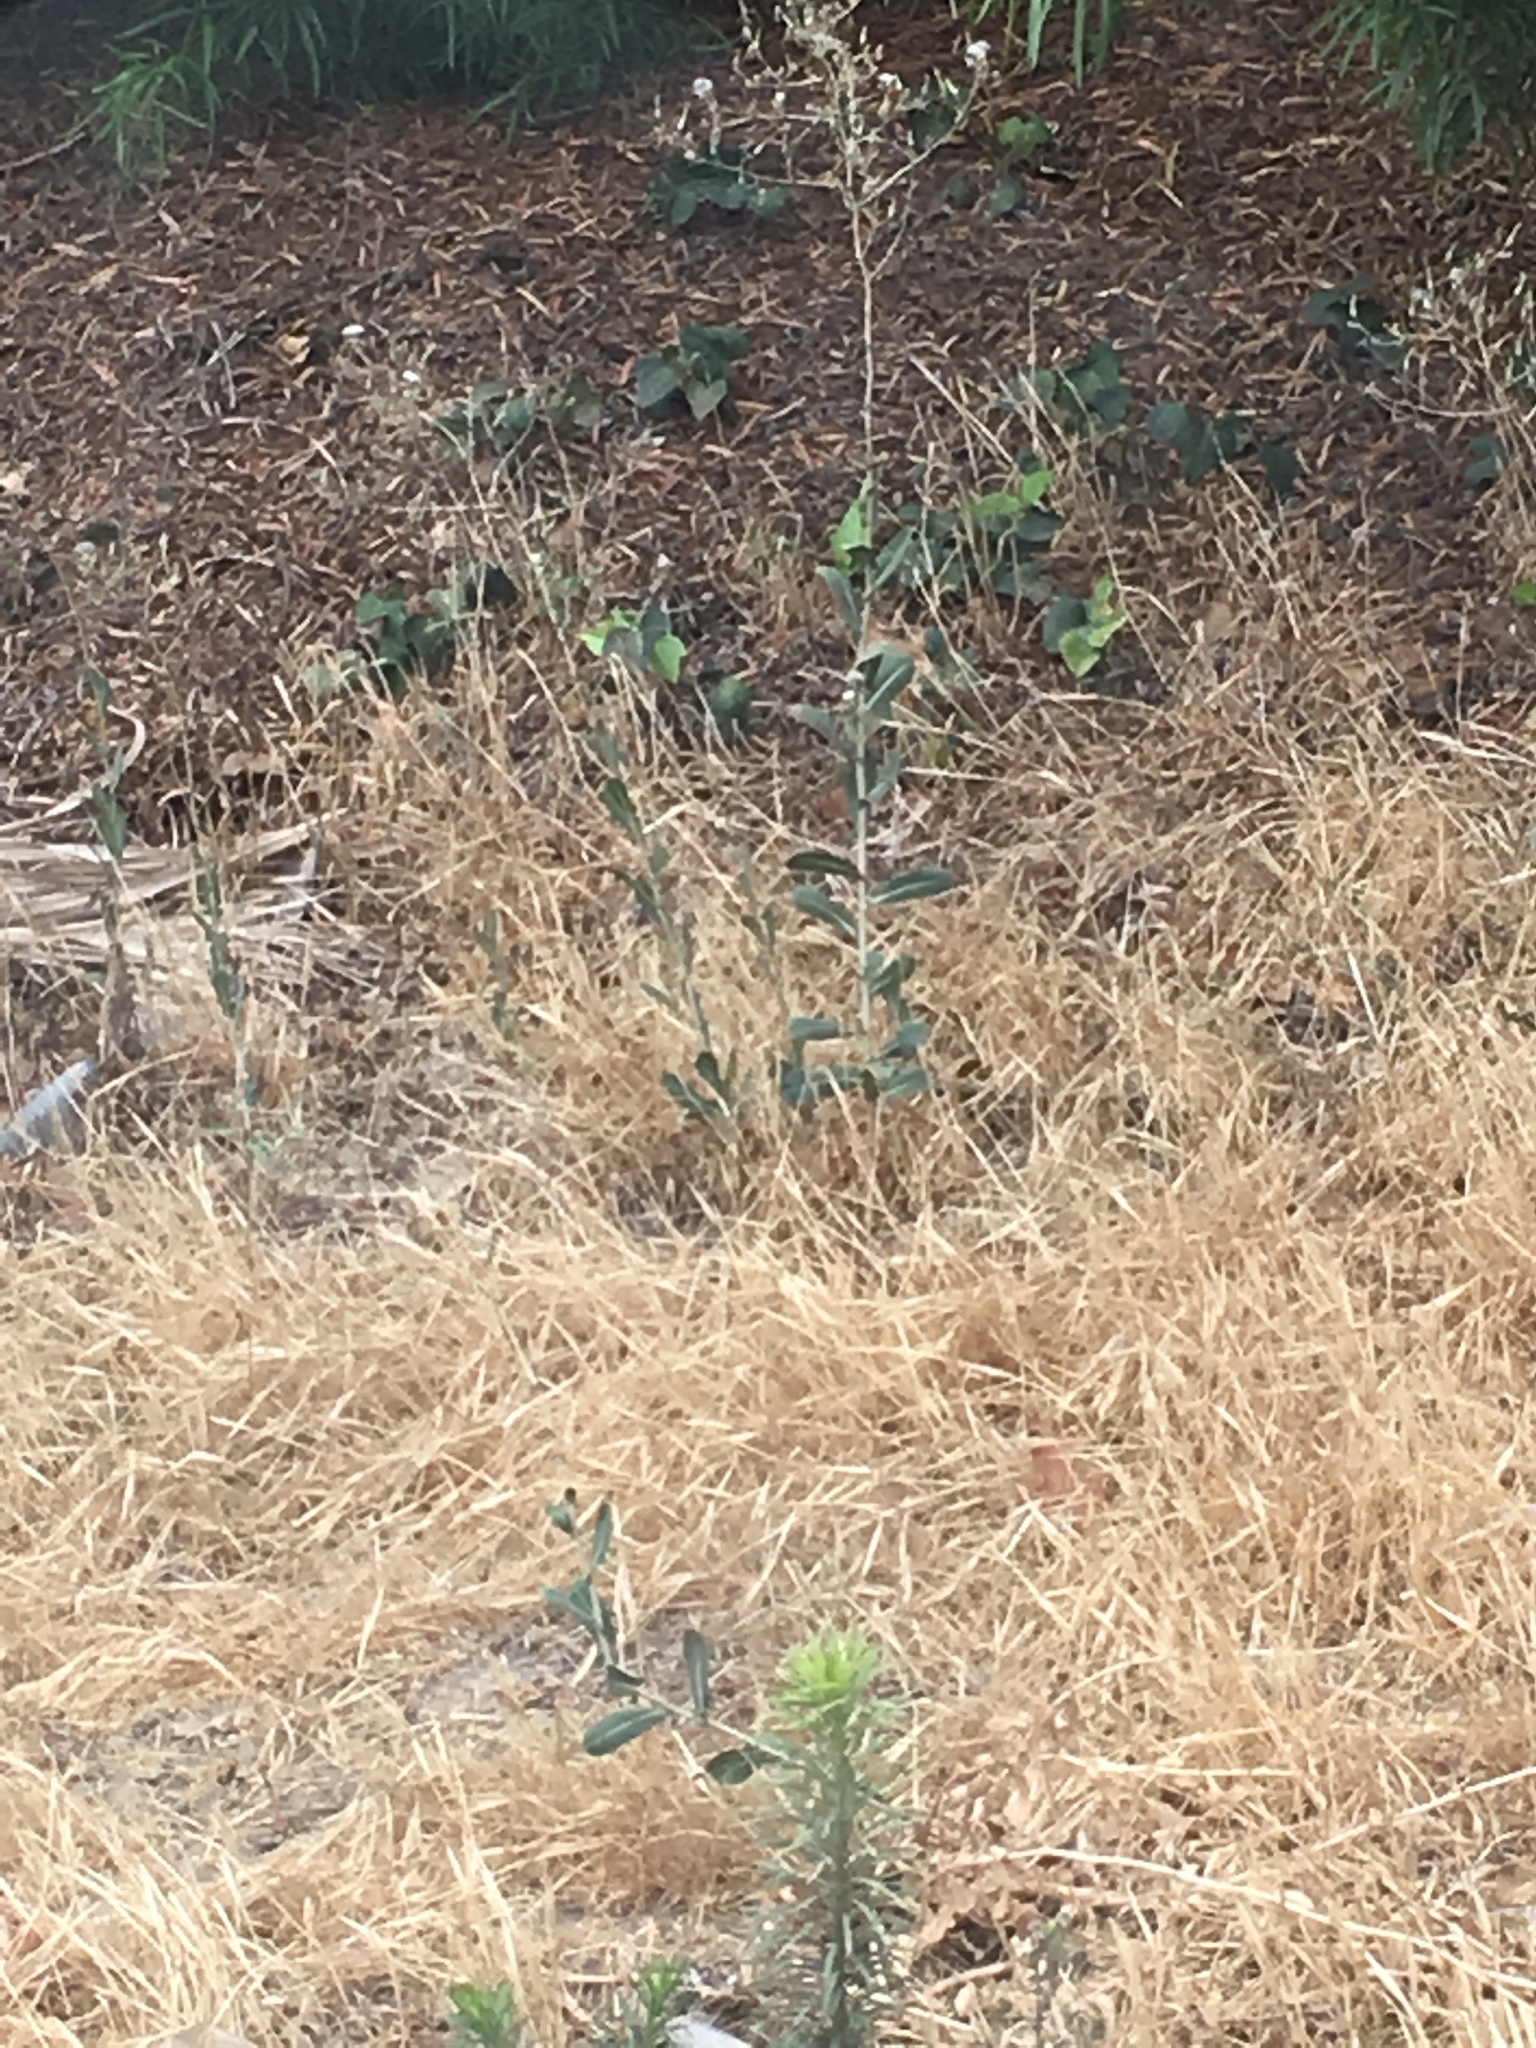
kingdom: Plantae
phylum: Tracheophyta
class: Magnoliopsida
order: Asterales
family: Asteraceae
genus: Lactuca
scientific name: Lactuca serriola
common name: Prickly lettuce
